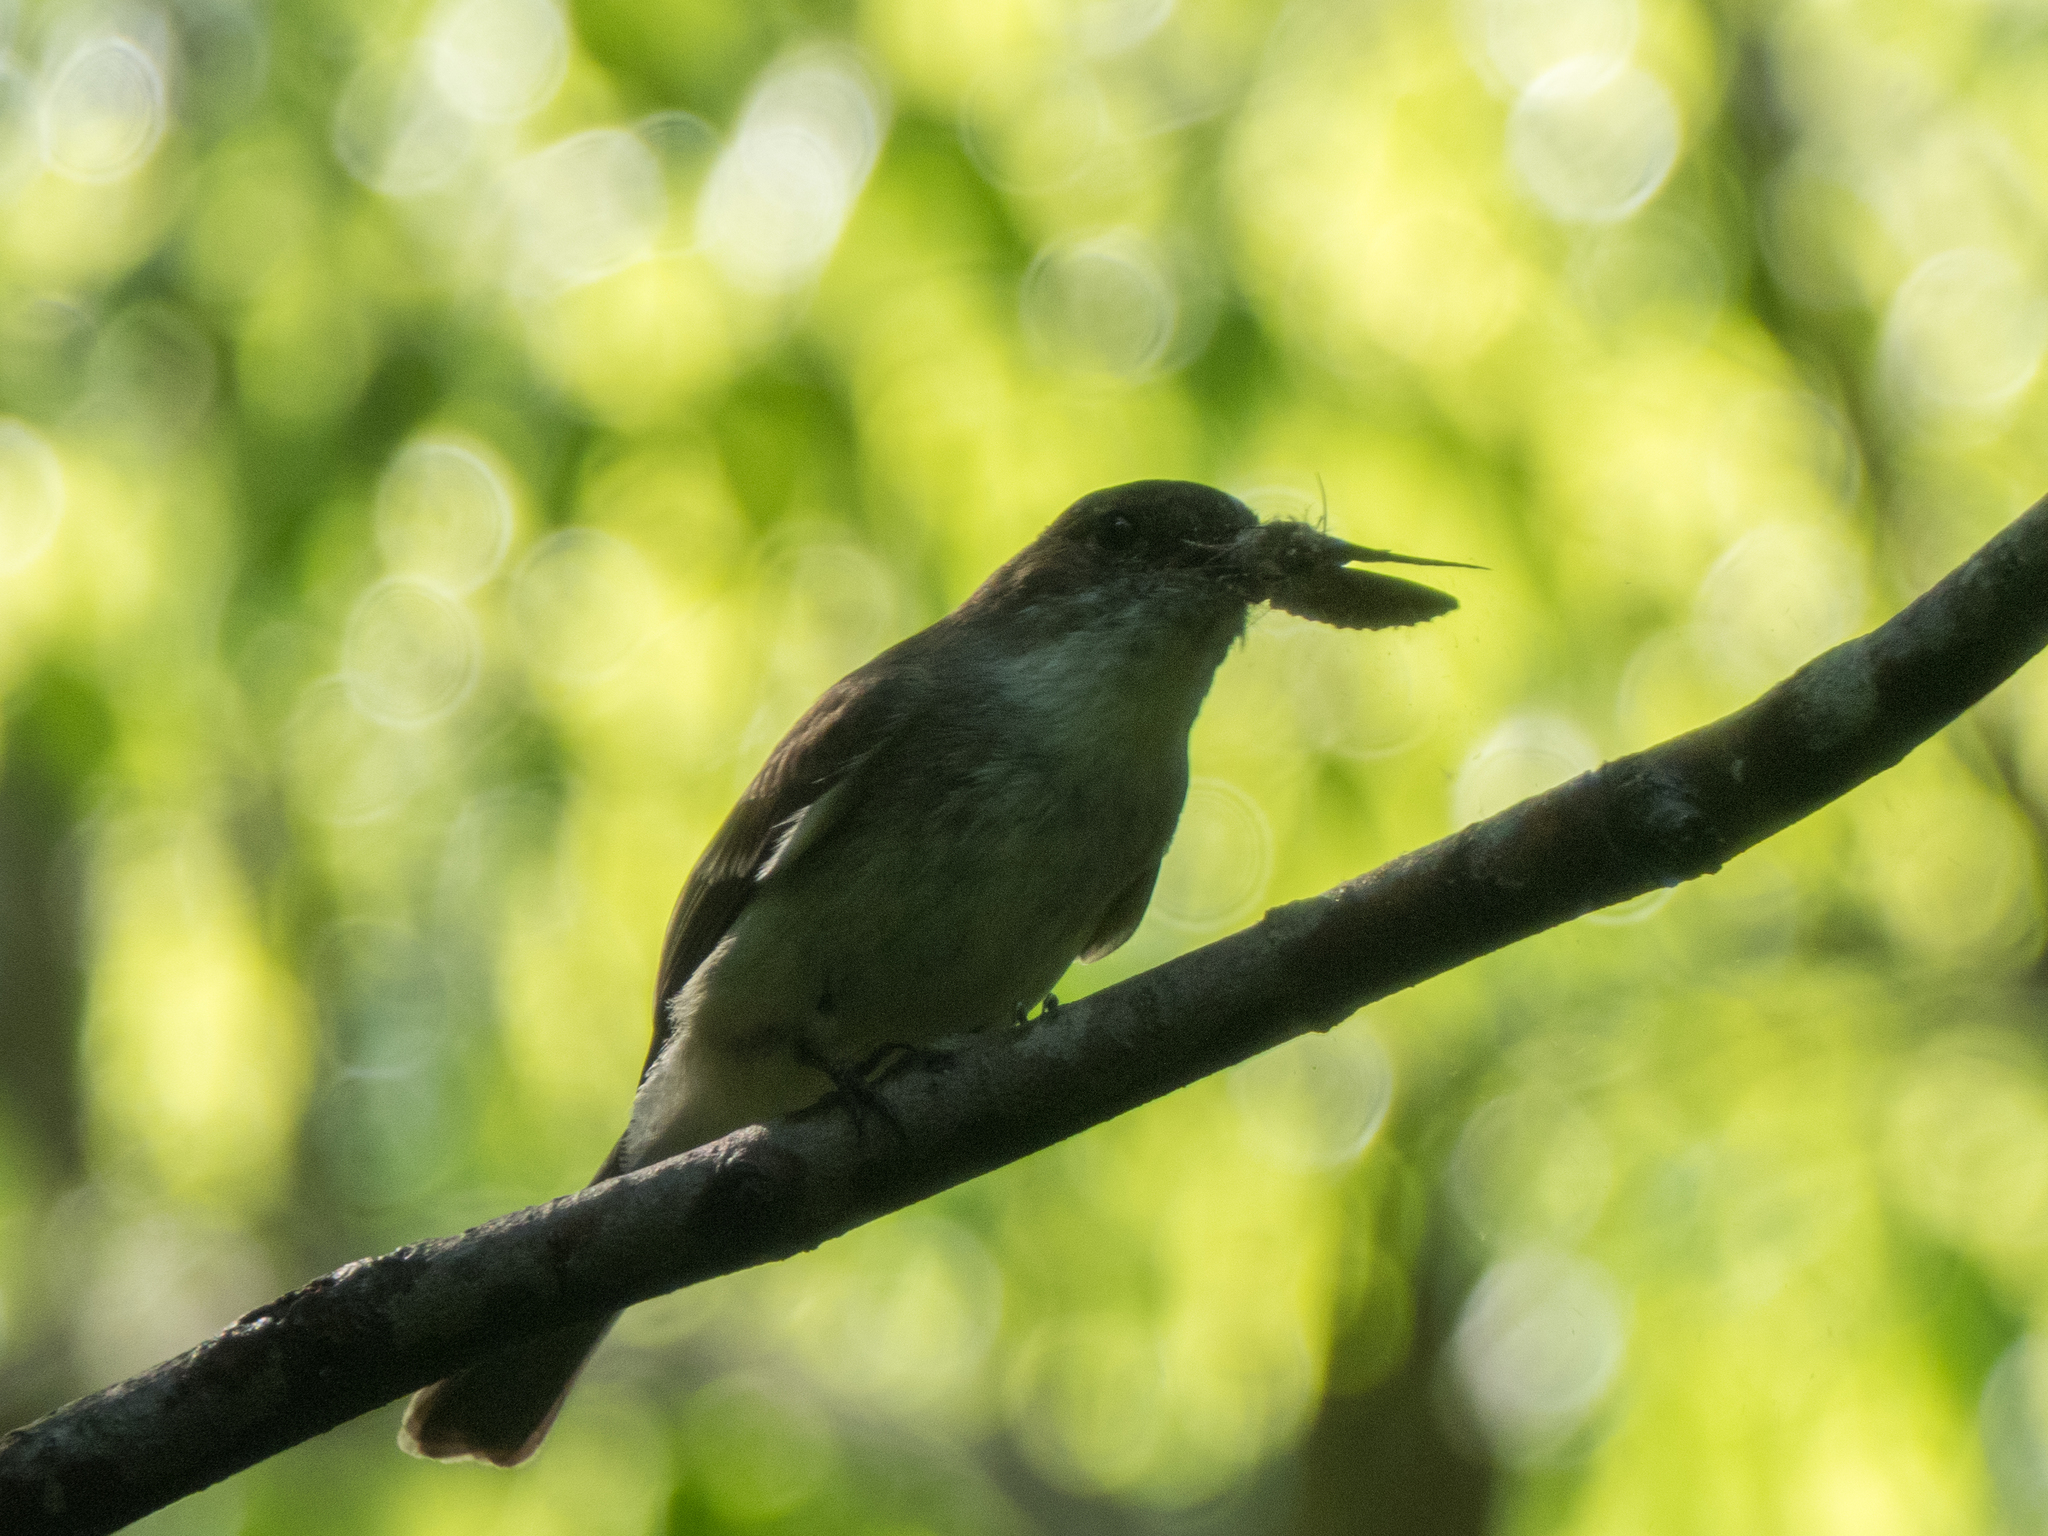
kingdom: Animalia
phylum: Chordata
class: Aves
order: Passeriformes
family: Tyrannidae
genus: Contopus
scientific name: Contopus virens
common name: Eastern wood-pewee
